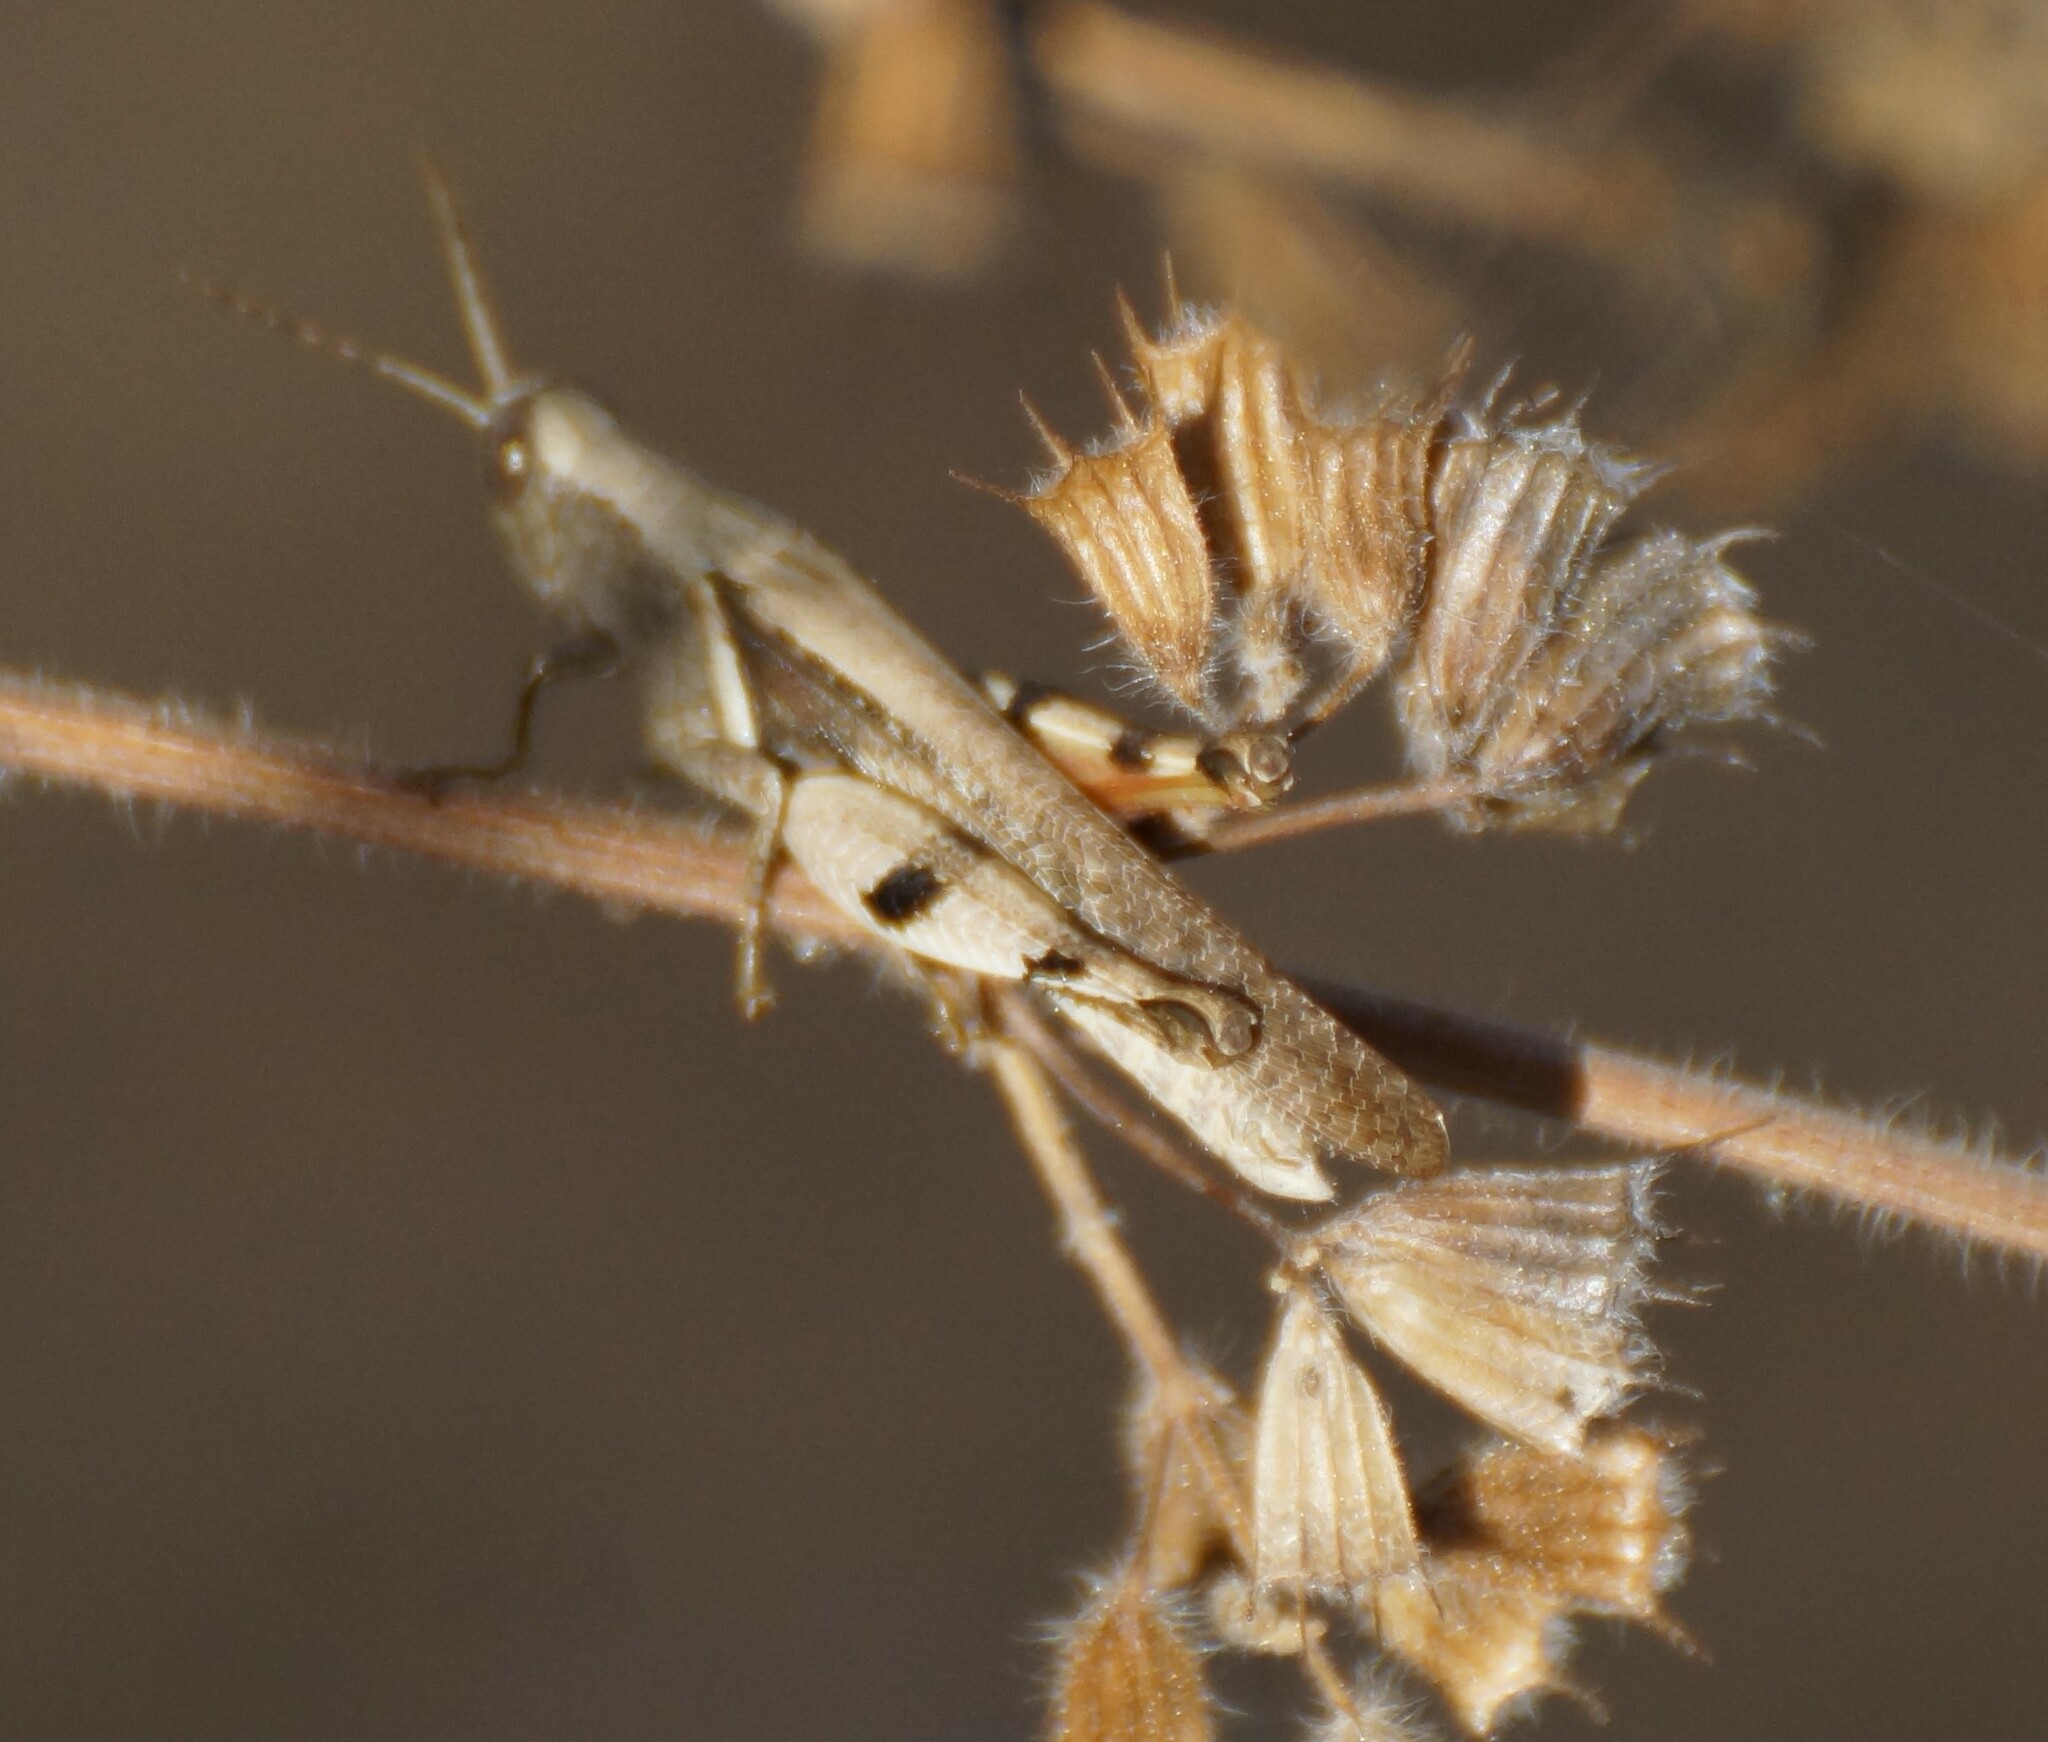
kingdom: Animalia
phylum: Arthropoda
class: Insecta
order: Orthoptera
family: Acrididae
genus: Stenocatantops
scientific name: Stenocatantops angustifrons
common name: Common tropical sharptail
